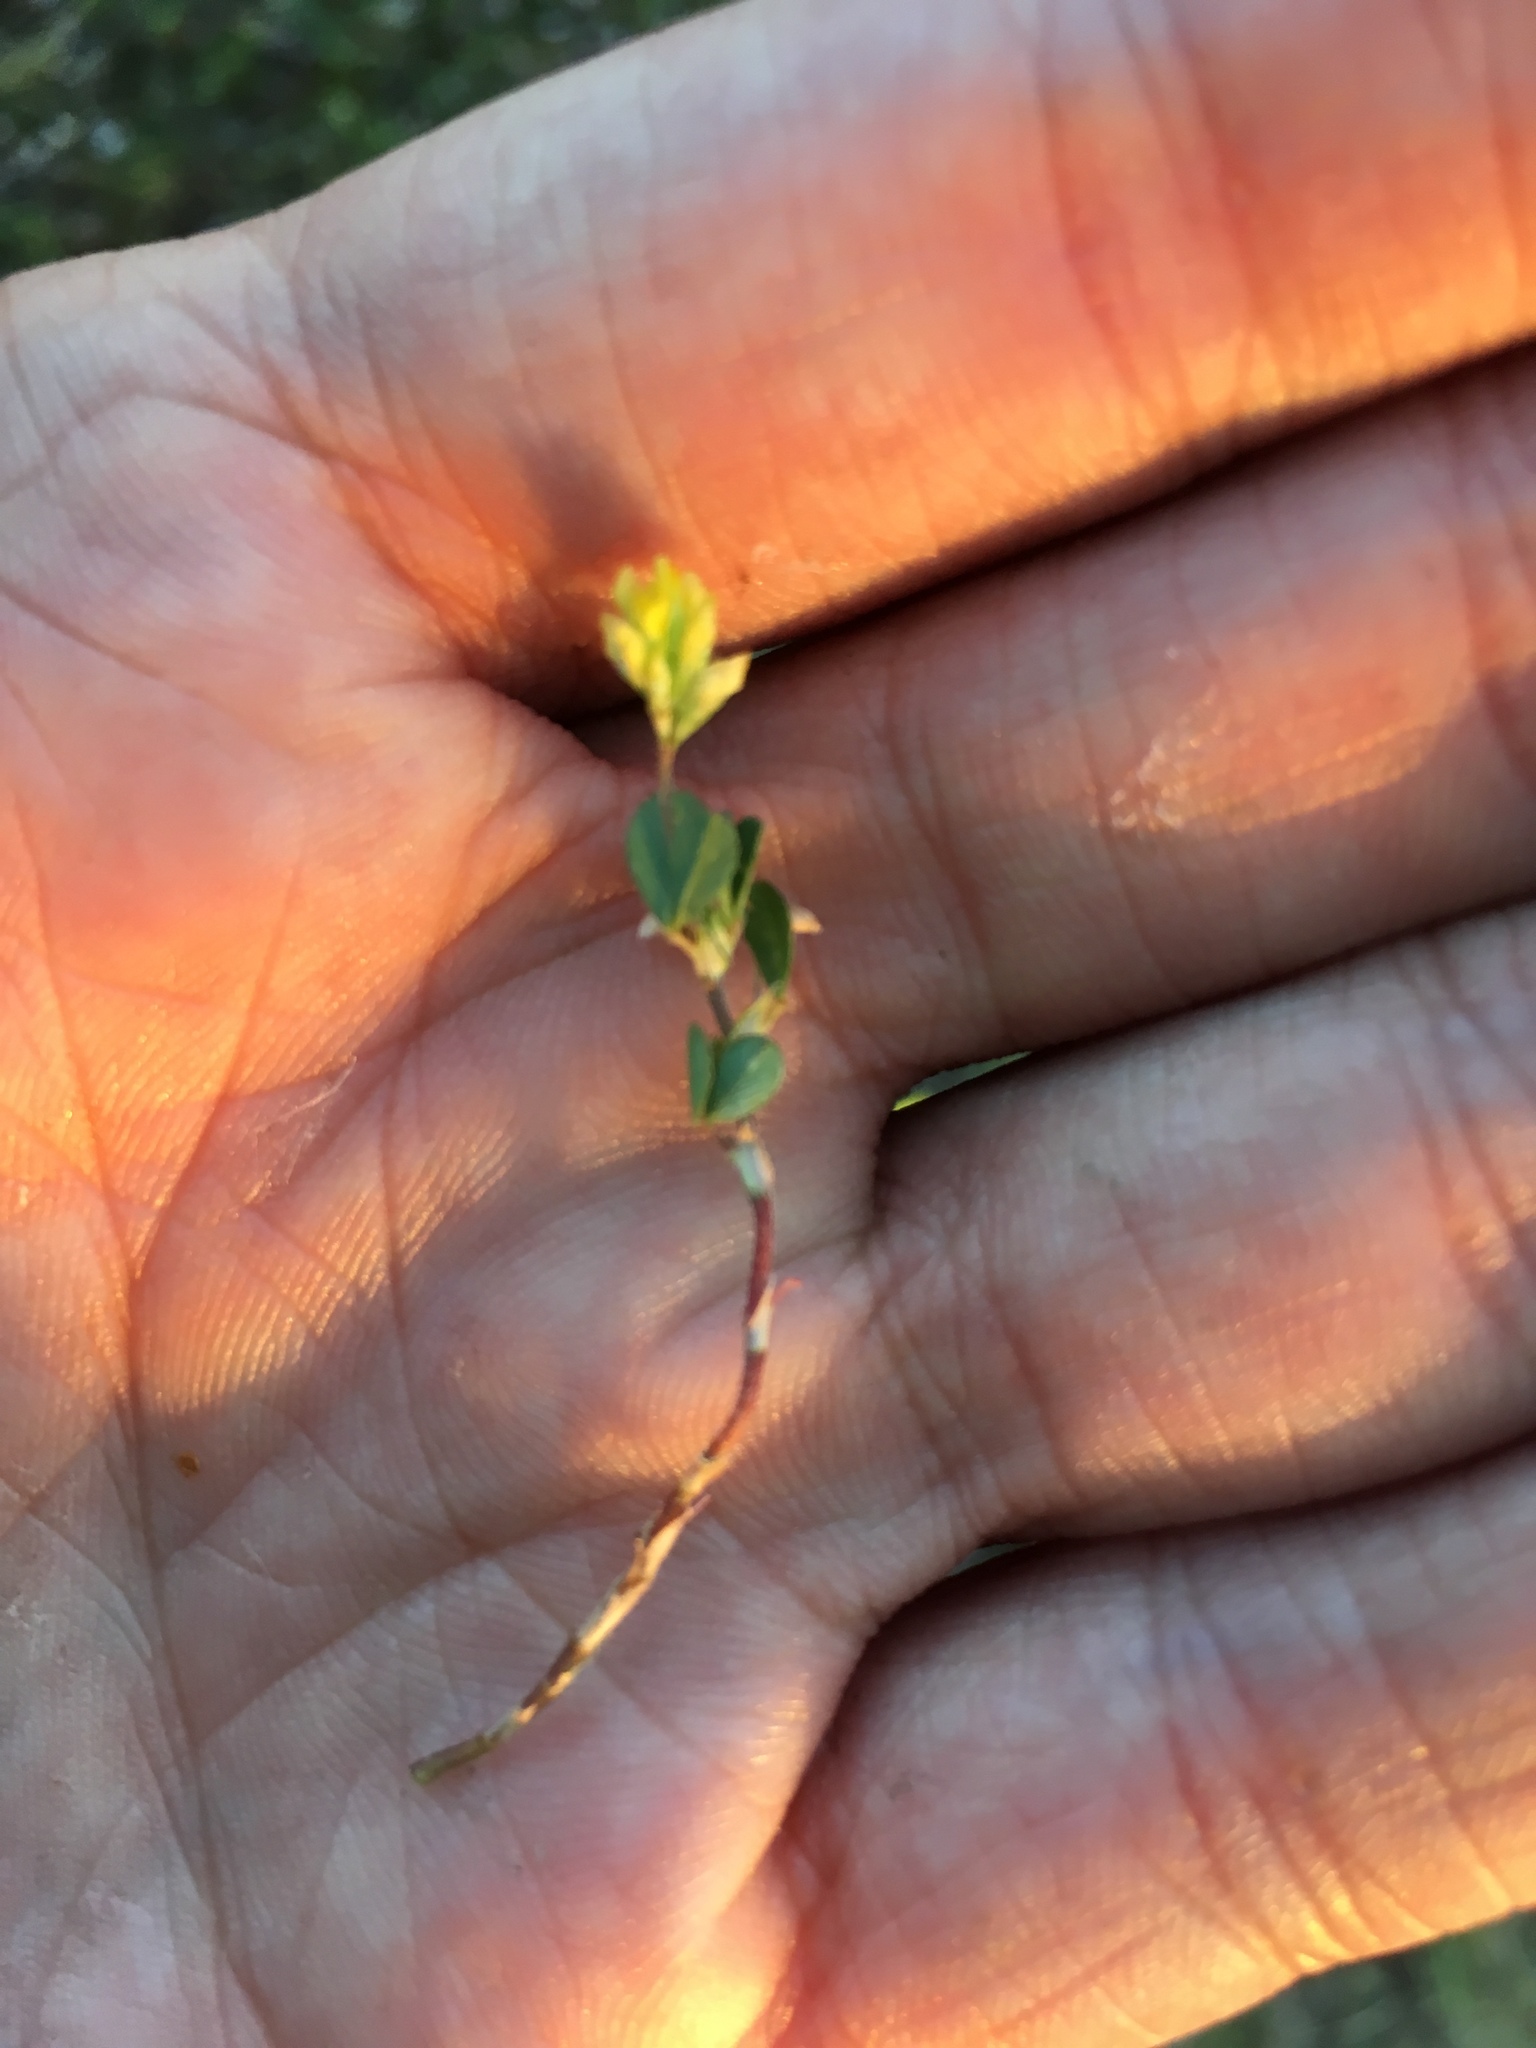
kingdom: Plantae
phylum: Tracheophyta
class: Magnoliopsida
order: Fabales
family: Fabaceae
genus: Trifolium
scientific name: Trifolium dubium
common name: Suckling clover
